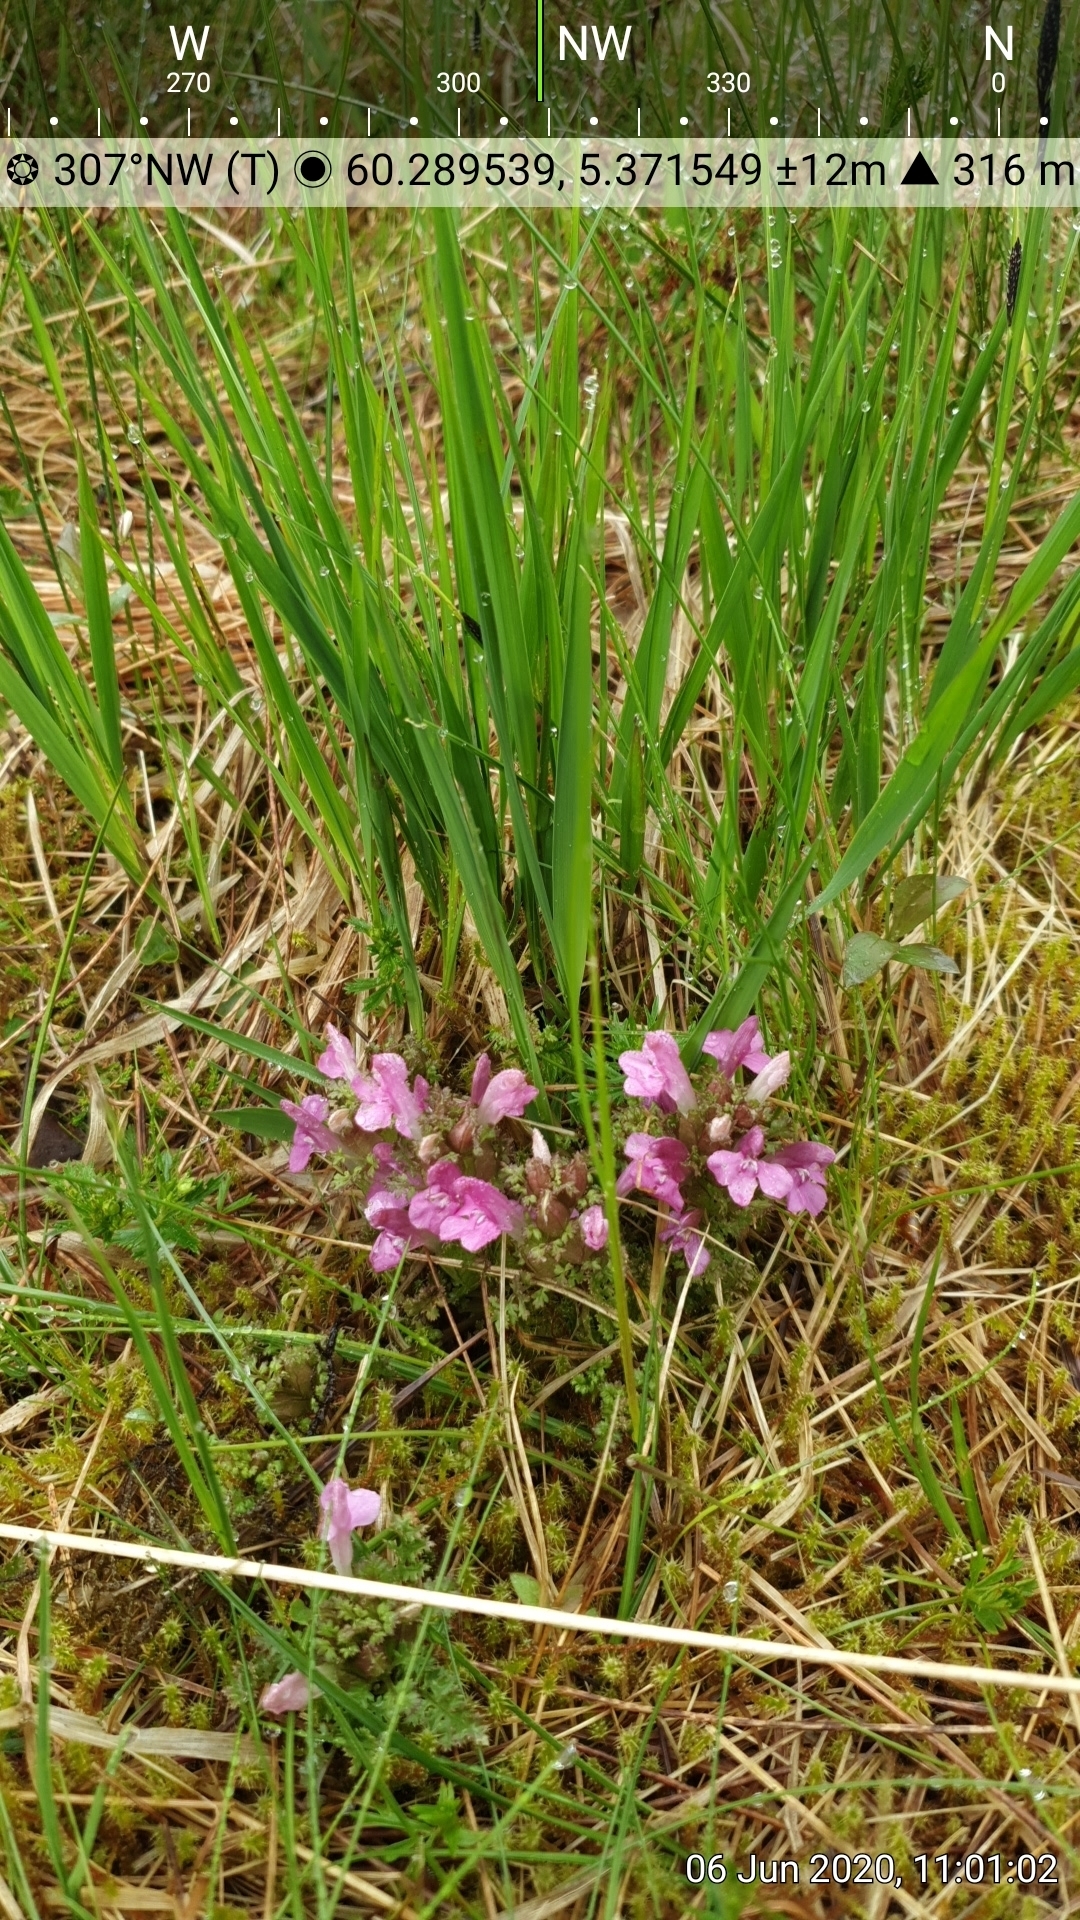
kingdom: Plantae
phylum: Tracheophyta
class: Magnoliopsida
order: Lamiales
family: Orobanchaceae
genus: Pedicularis
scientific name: Pedicularis sylvatica
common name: Lousewort
